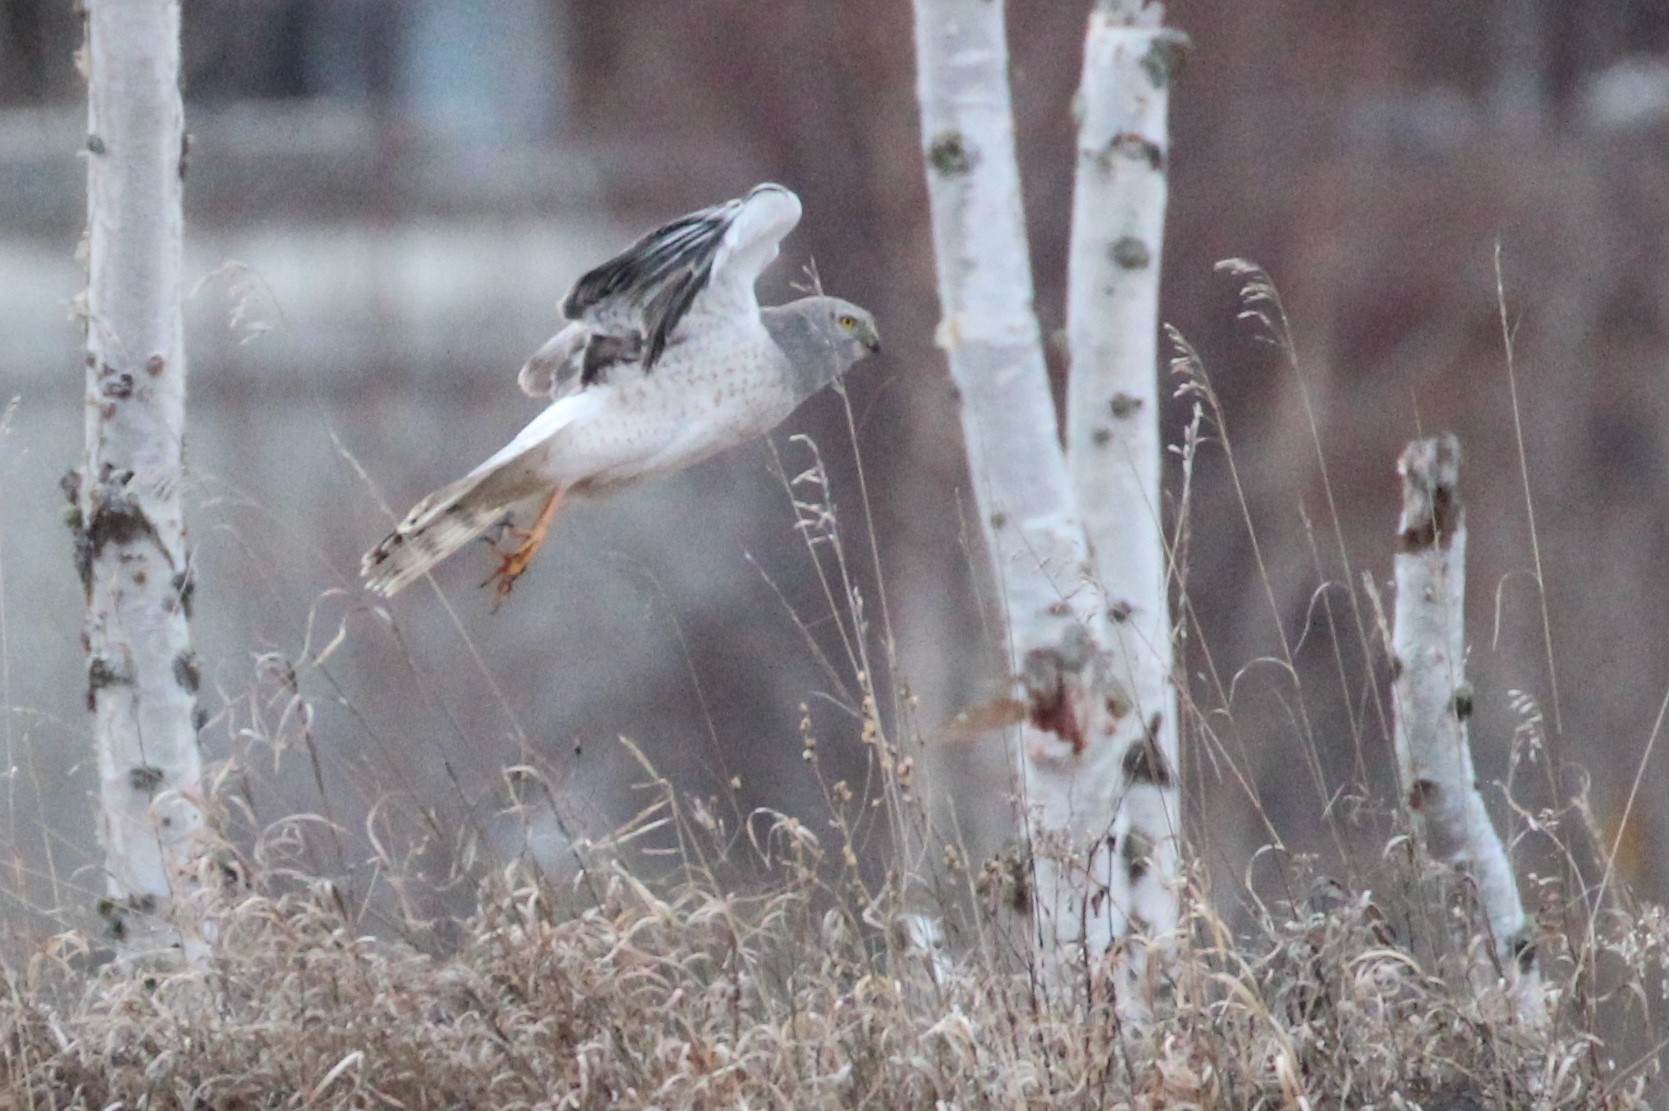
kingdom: Animalia
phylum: Chordata
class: Aves
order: Accipitriformes
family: Accipitridae
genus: Circus
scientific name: Circus cyaneus
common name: Hen harrier
